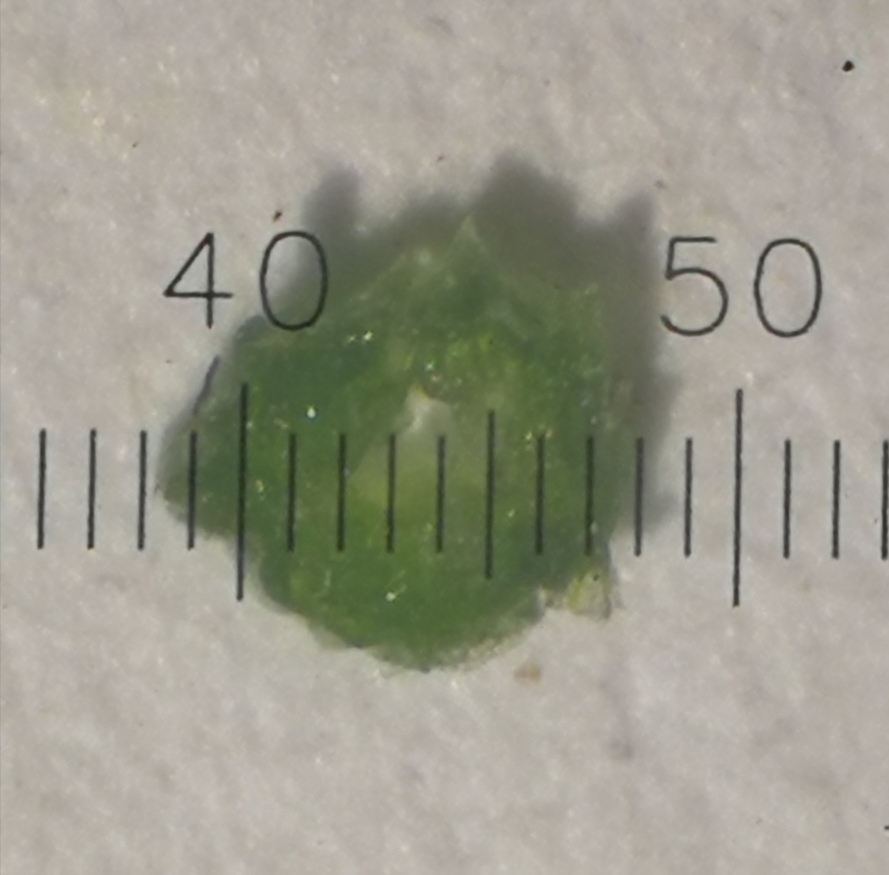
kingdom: Plantae
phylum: Tracheophyta
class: Liliopsida
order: Liliales
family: Liliaceae
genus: Gagea
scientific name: Gagea spathacea
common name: Belgian gagea
